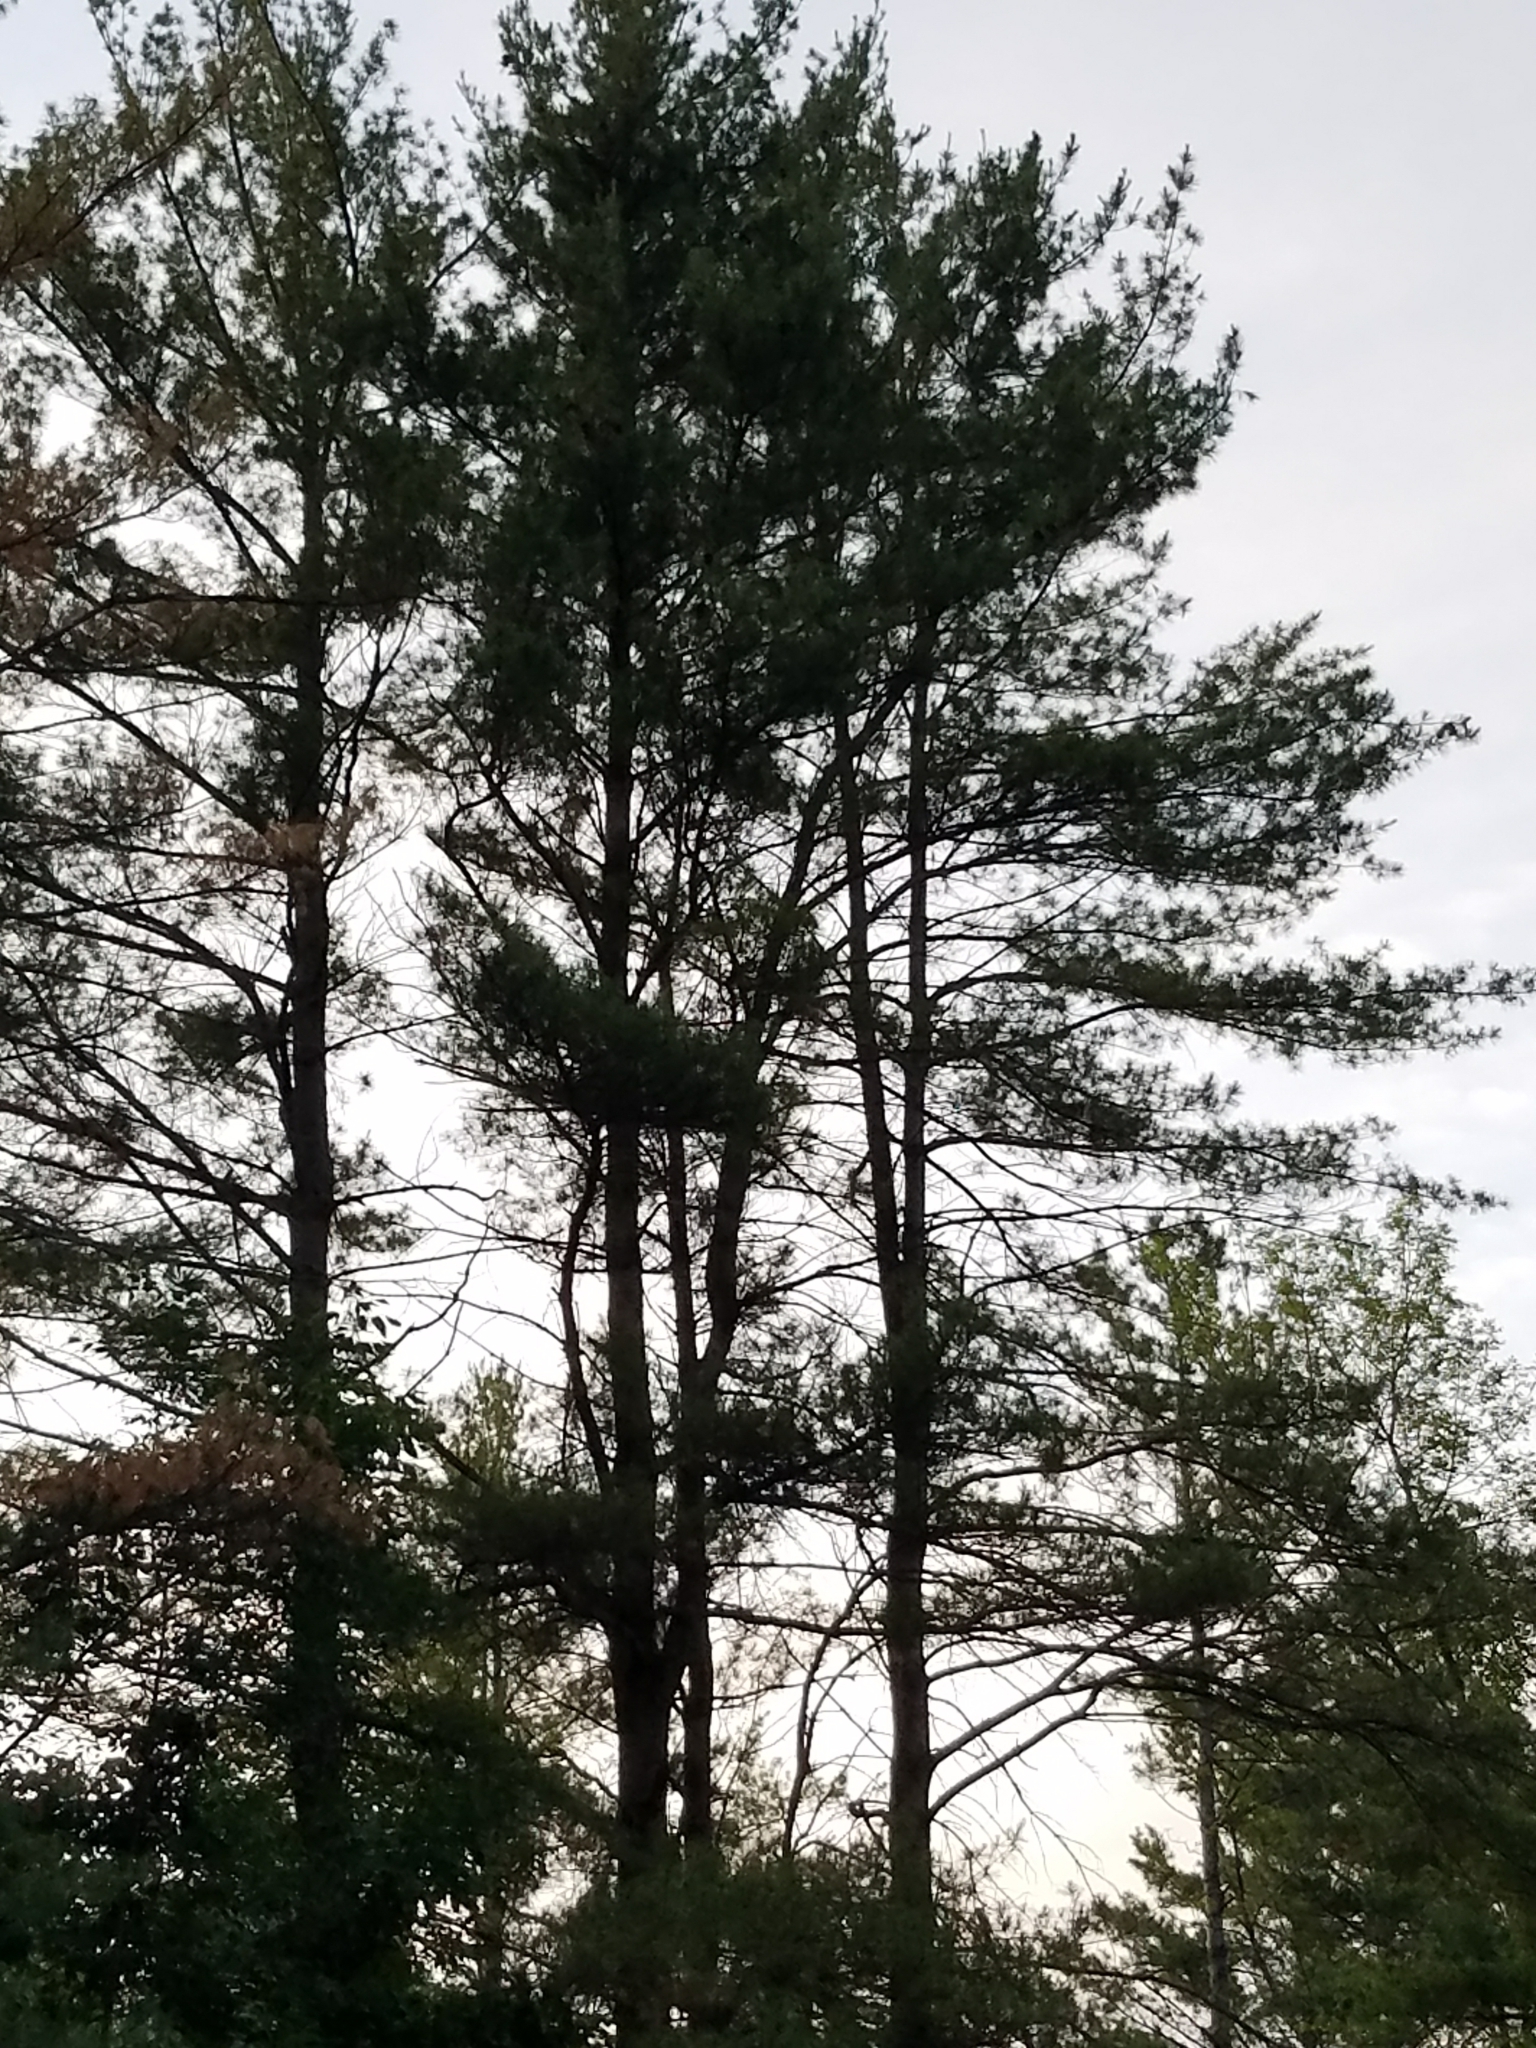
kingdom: Plantae
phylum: Tracheophyta
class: Pinopsida
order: Pinales
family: Pinaceae
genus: Pinus
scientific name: Pinus strobus
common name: Weymouth pine
